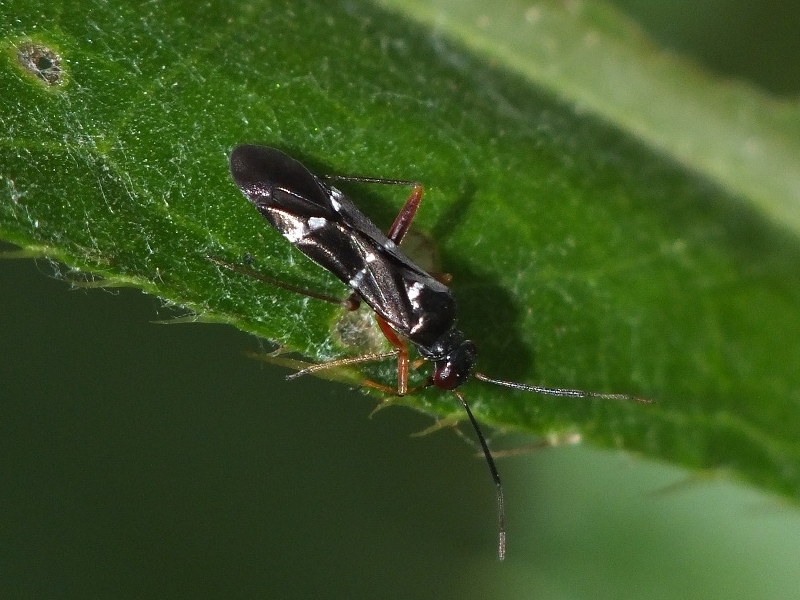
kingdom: Animalia
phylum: Arthropoda
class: Insecta
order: Hemiptera
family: Miridae
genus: Globiceps
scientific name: Globiceps sphaegiformis
